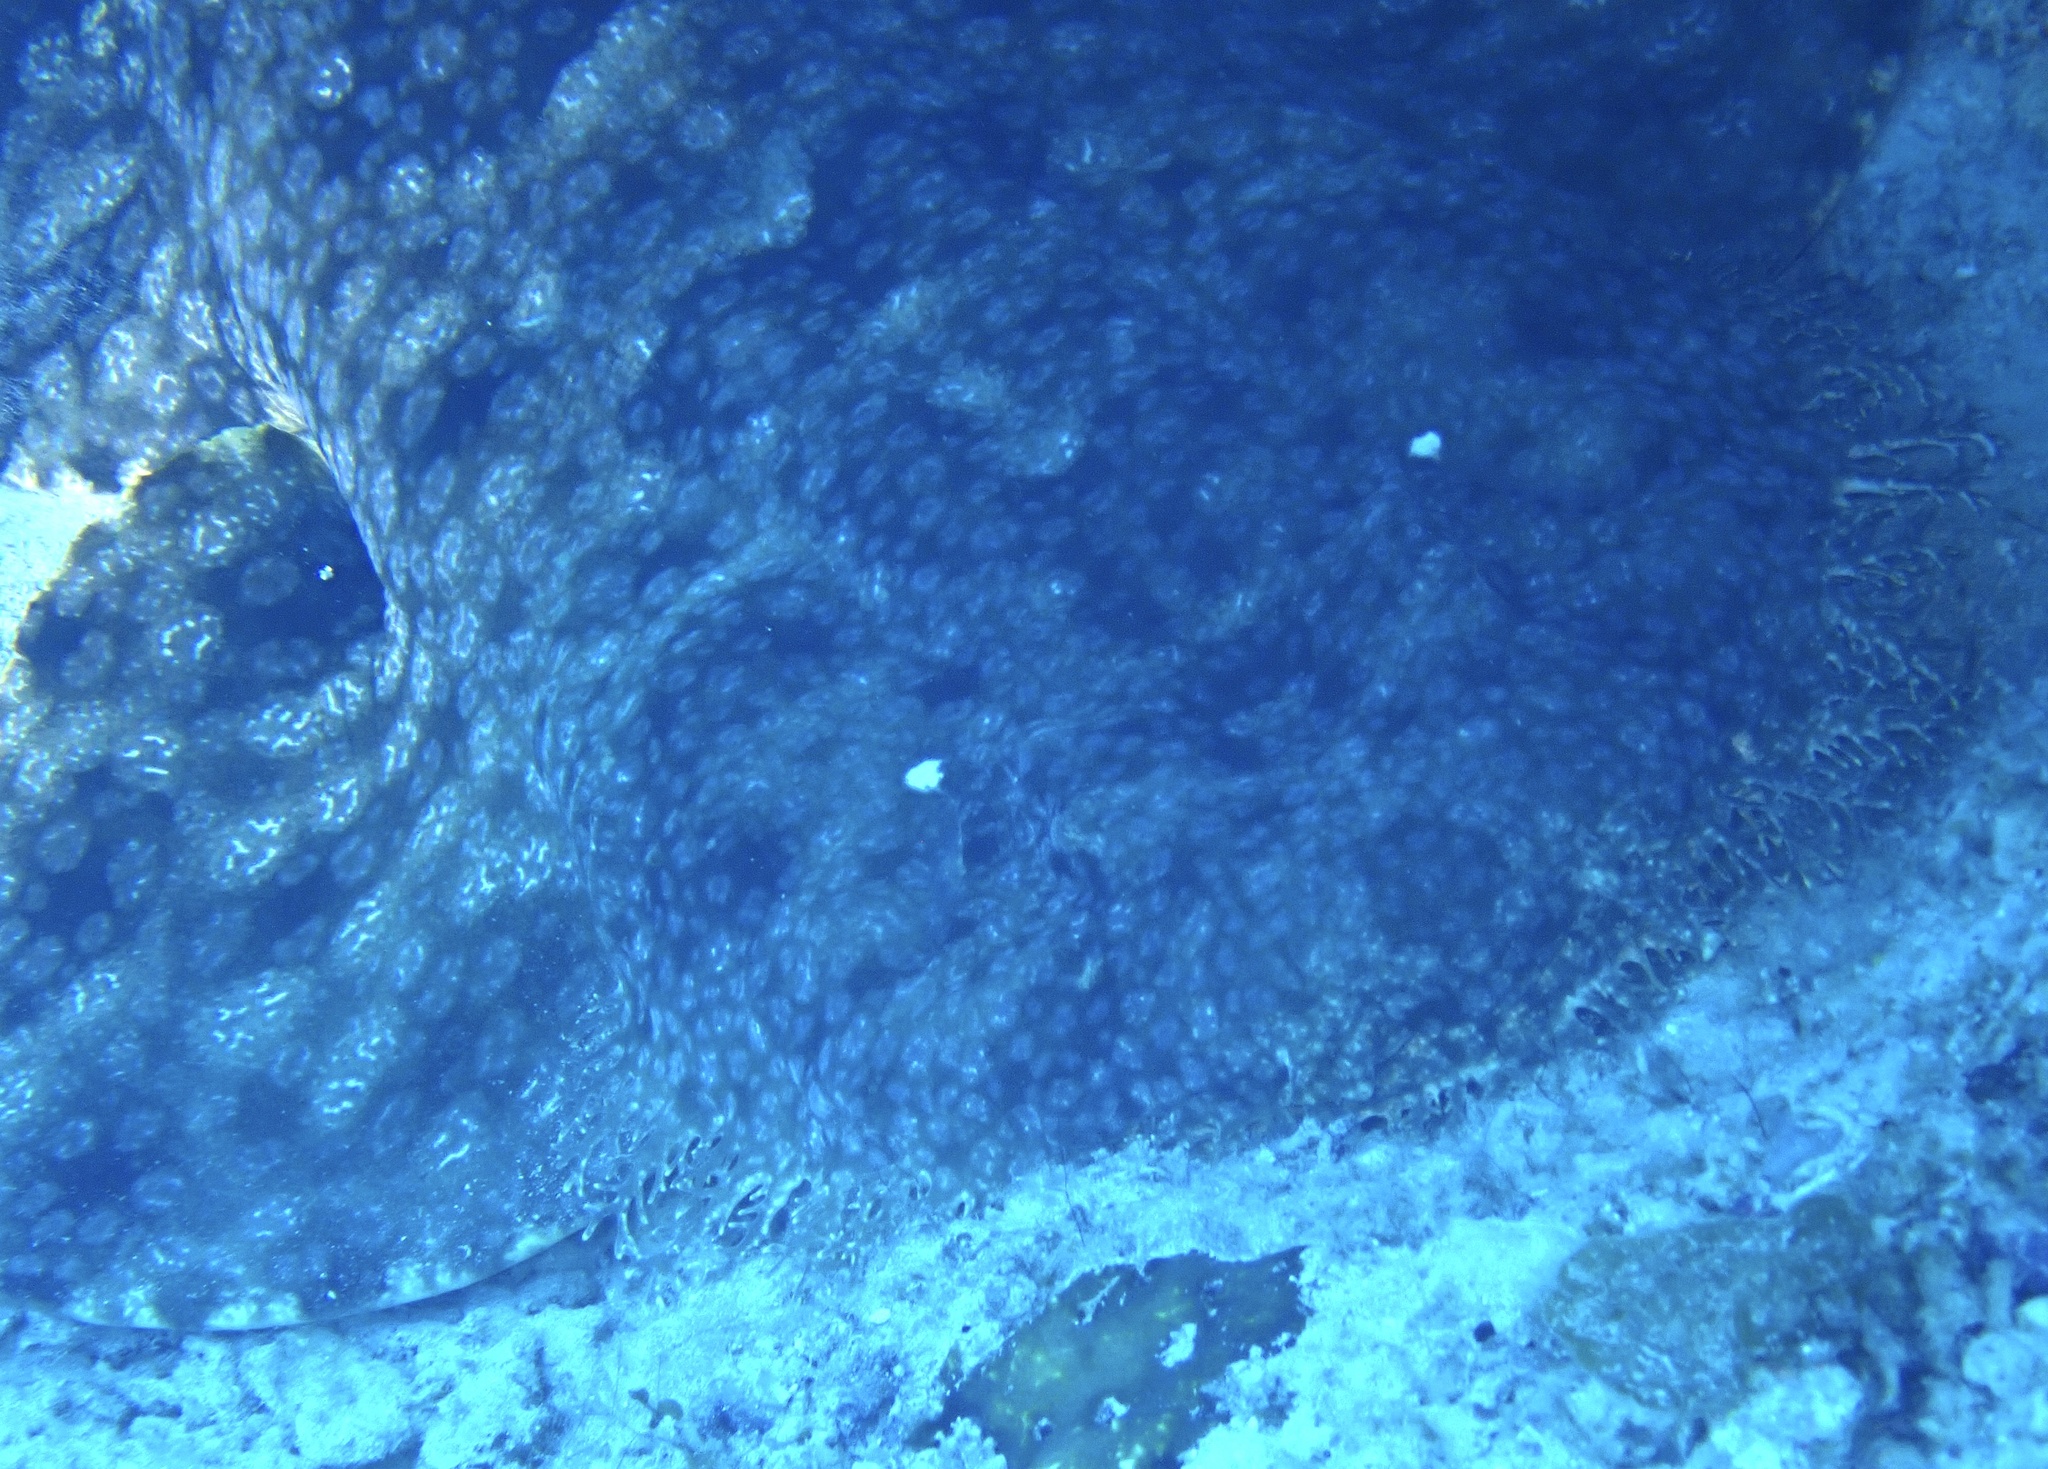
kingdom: Animalia
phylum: Chordata
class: Elasmobranchii
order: Orectolobiformes
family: Orectolobidae
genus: Eucrossorhinus
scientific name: Eucrossorhinus dasypogon
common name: Tasselled wobbegong
